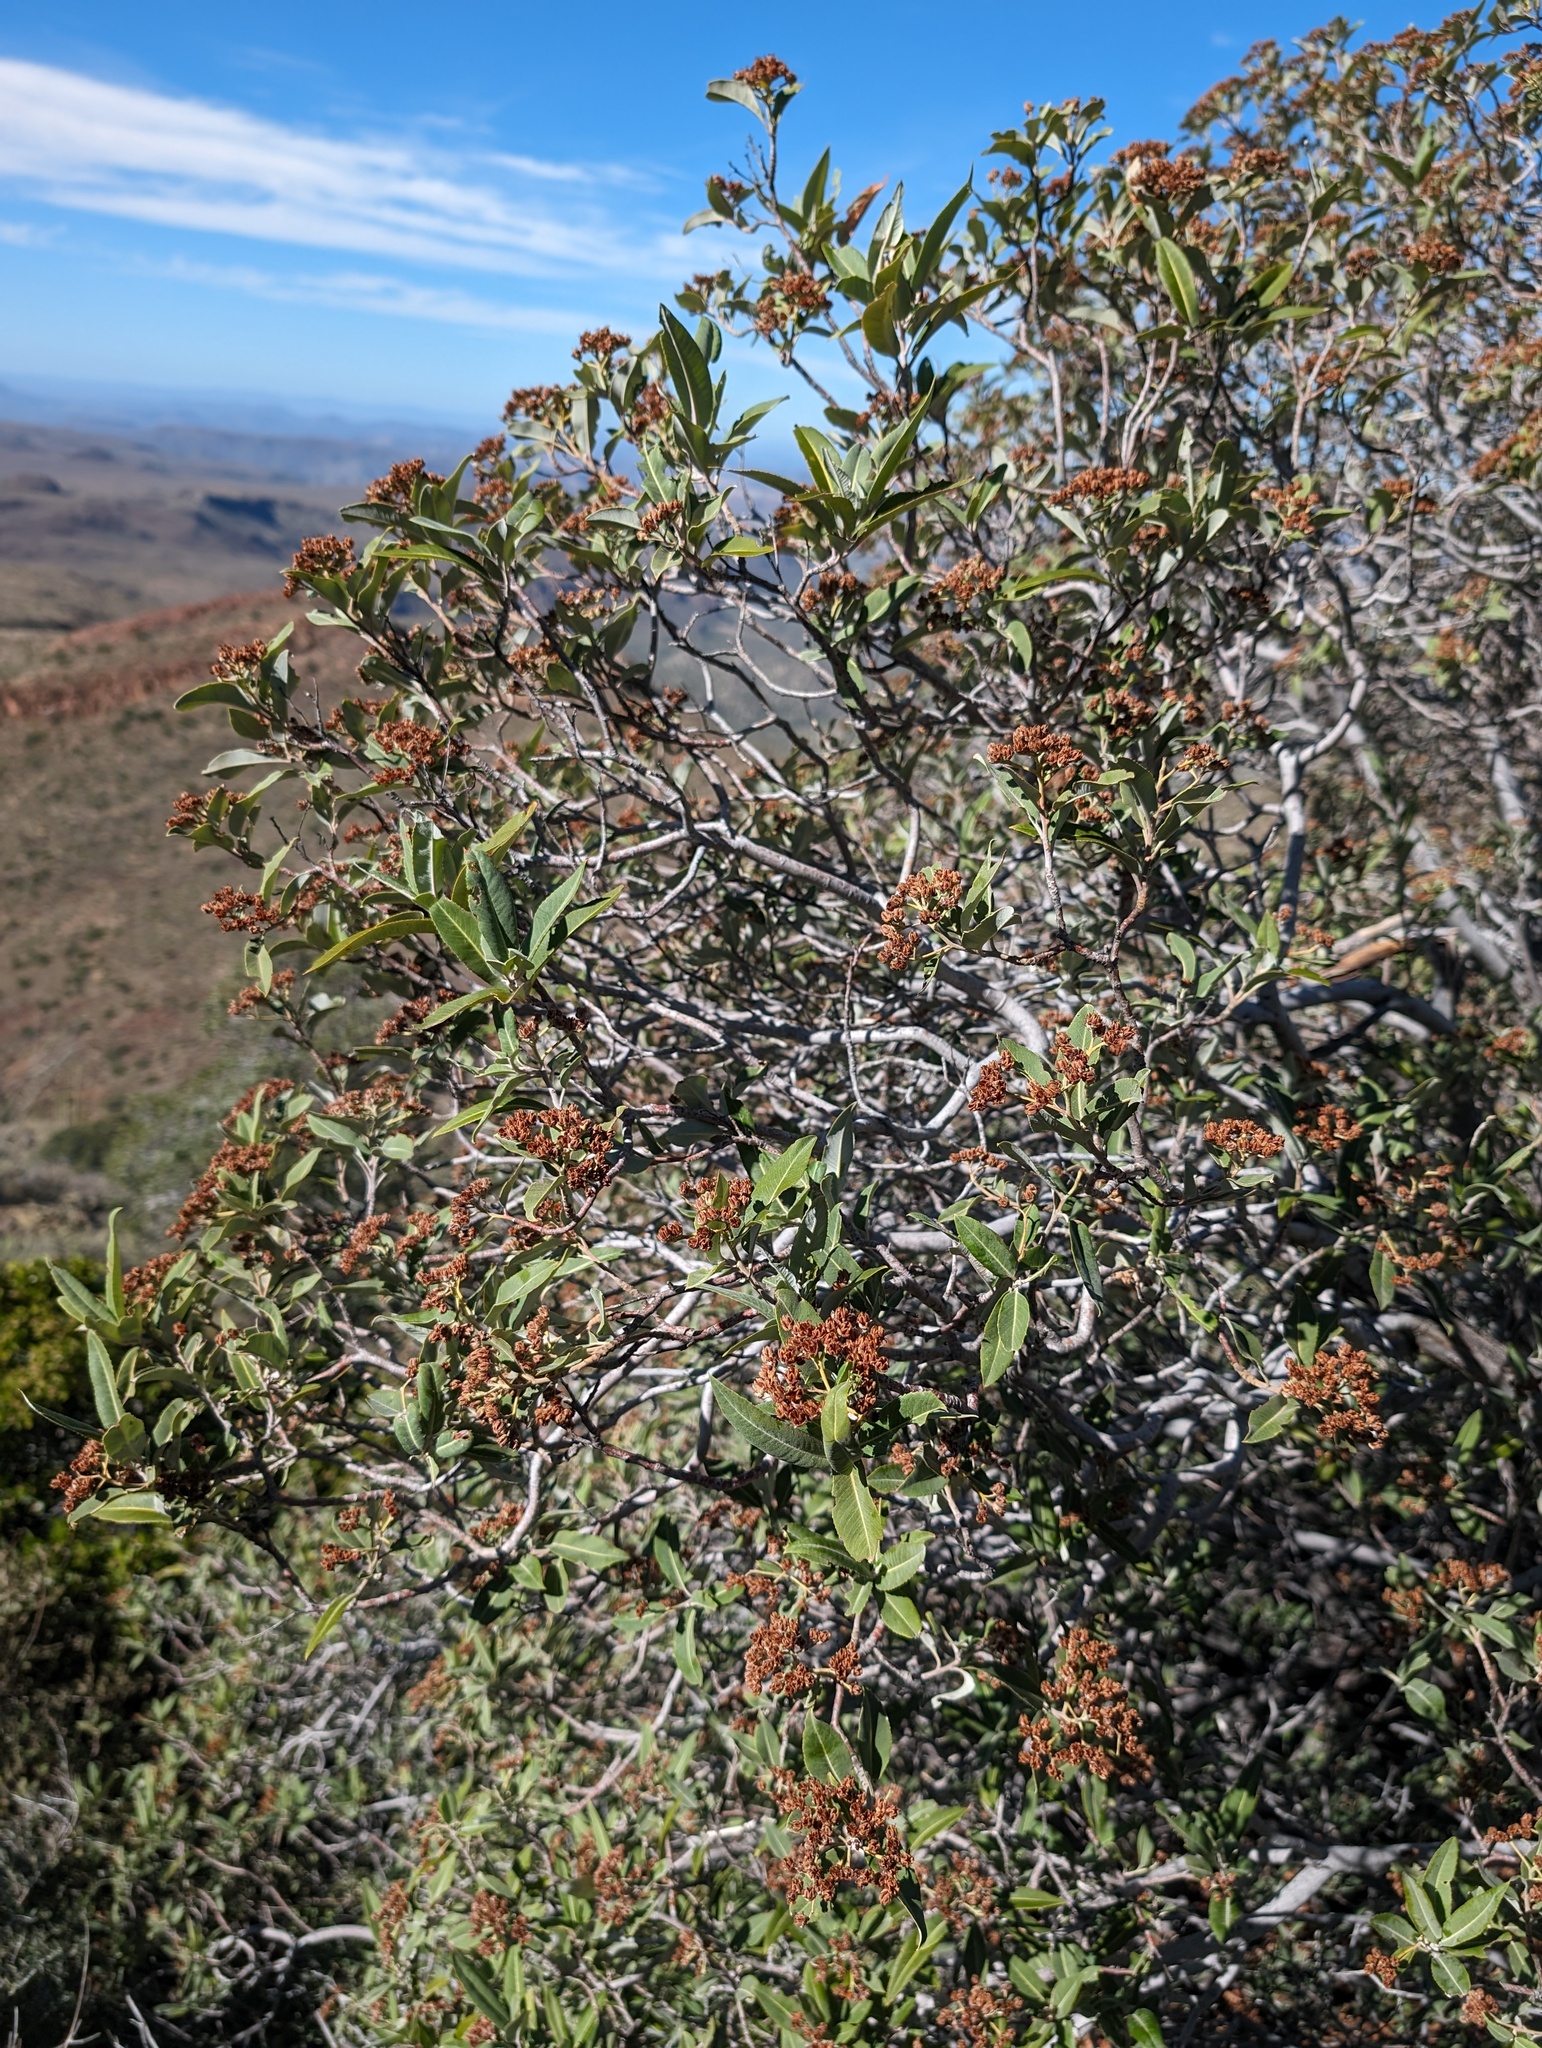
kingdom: Plantae
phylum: Tracheophyta
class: Magnoliopsida
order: Rosales
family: Rosaceae
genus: Vauquelinia
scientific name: Vauquelinia californica
